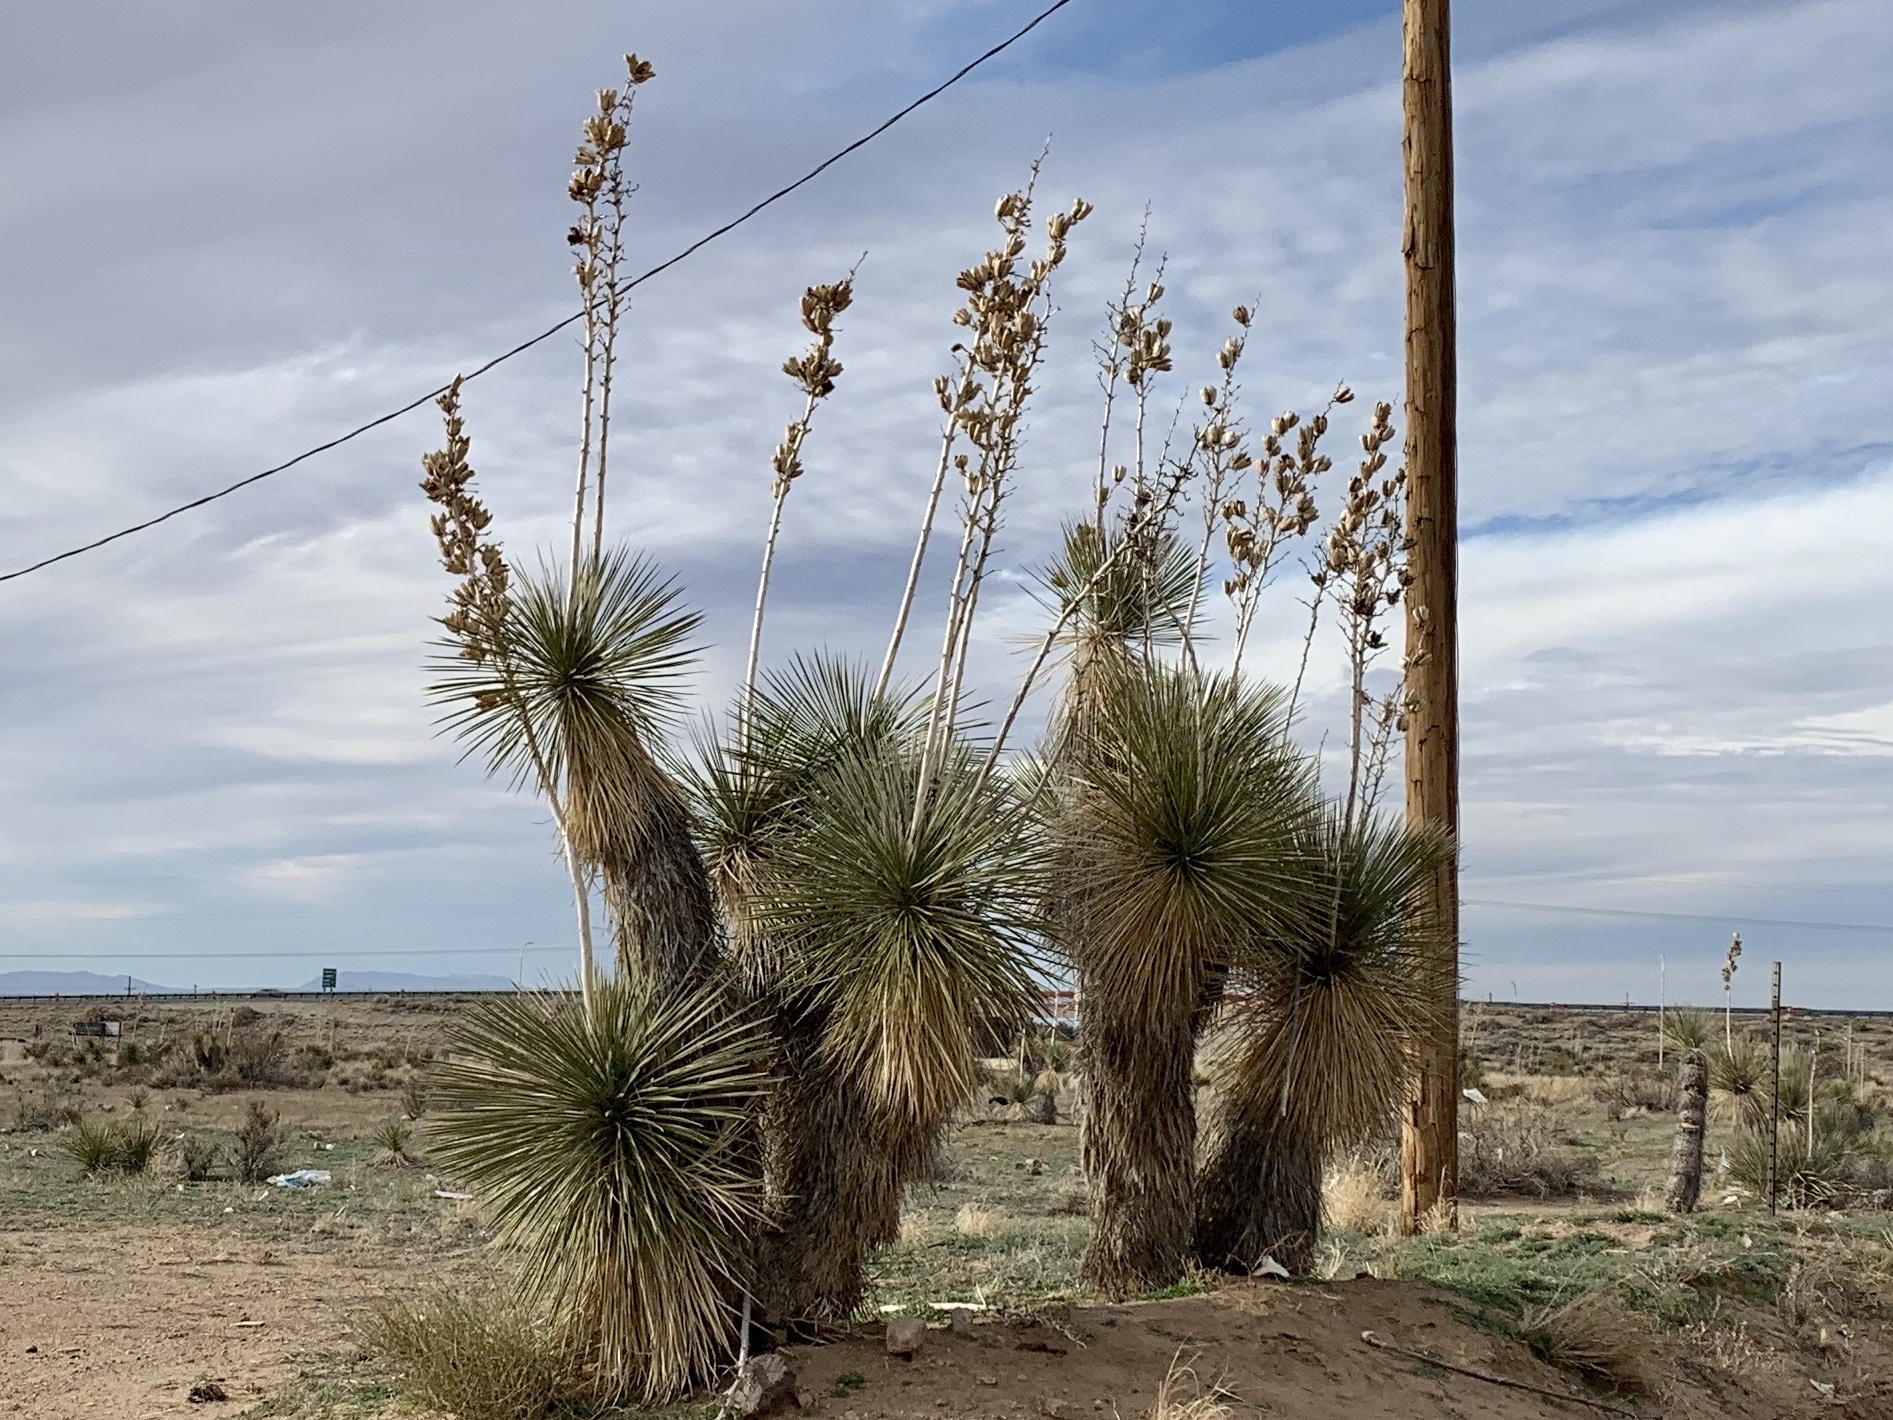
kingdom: Plantae
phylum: Tracheophyta
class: Liliopsida
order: Asparagales
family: Asparagaceae
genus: Yucca
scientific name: Yucca elata
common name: Palmella
